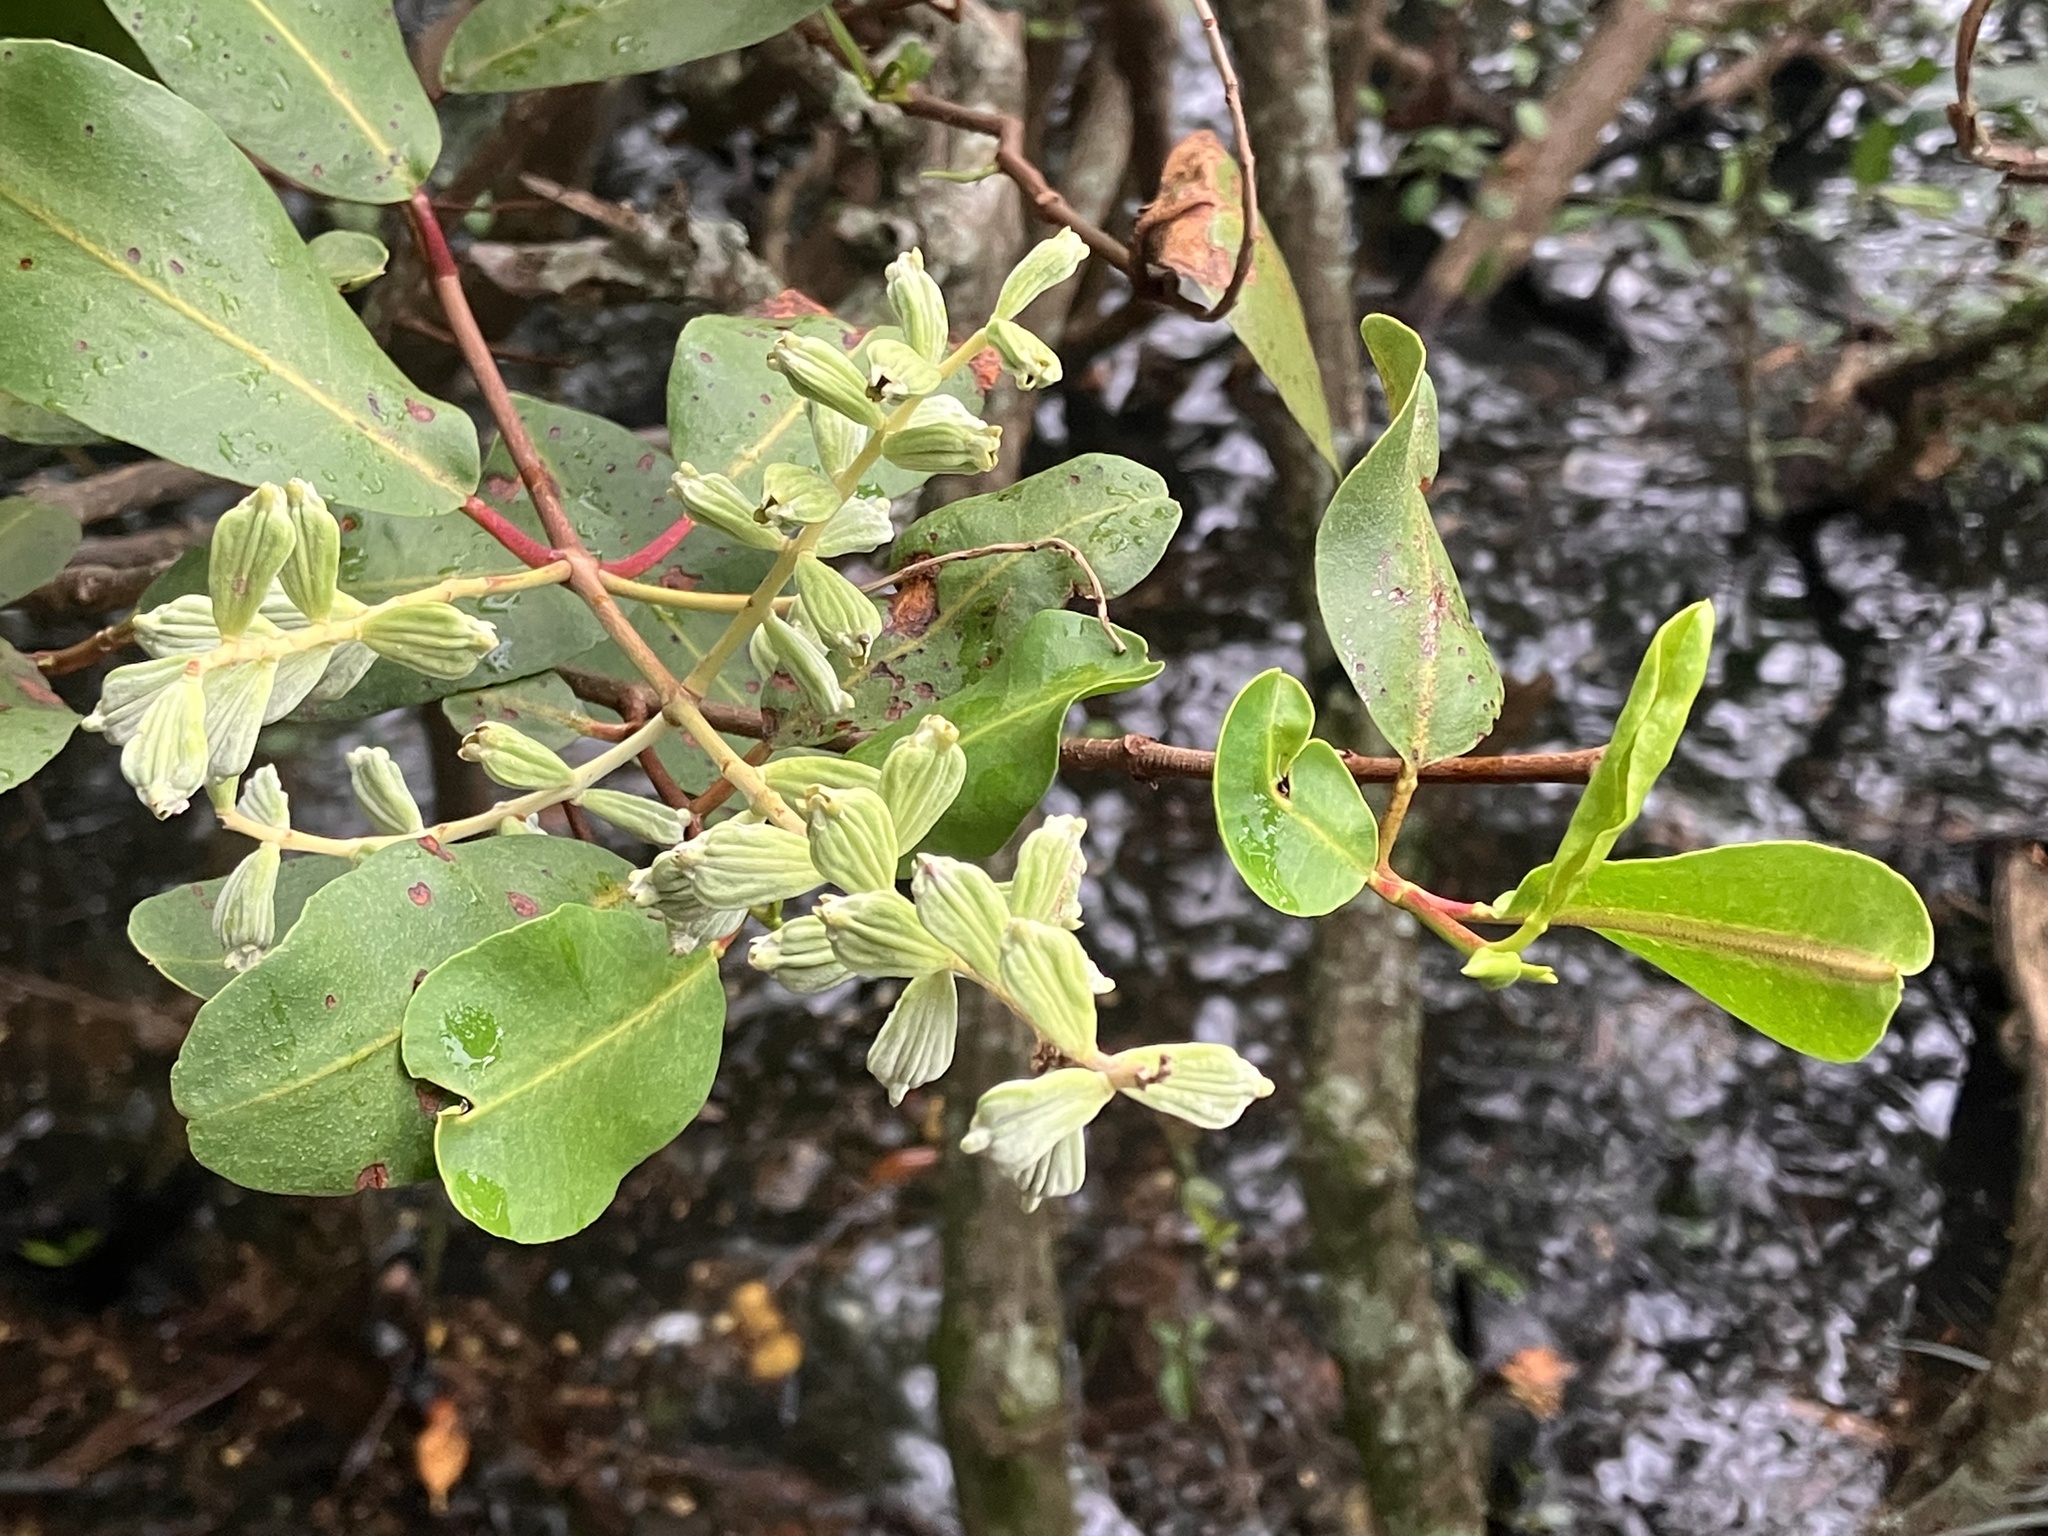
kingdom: Plantae
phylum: Tracheophyta
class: Magnoliopsida
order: Myrtales
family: Combretaceae
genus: Laguncularia
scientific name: Laguncularia racemosa
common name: White mangrove
